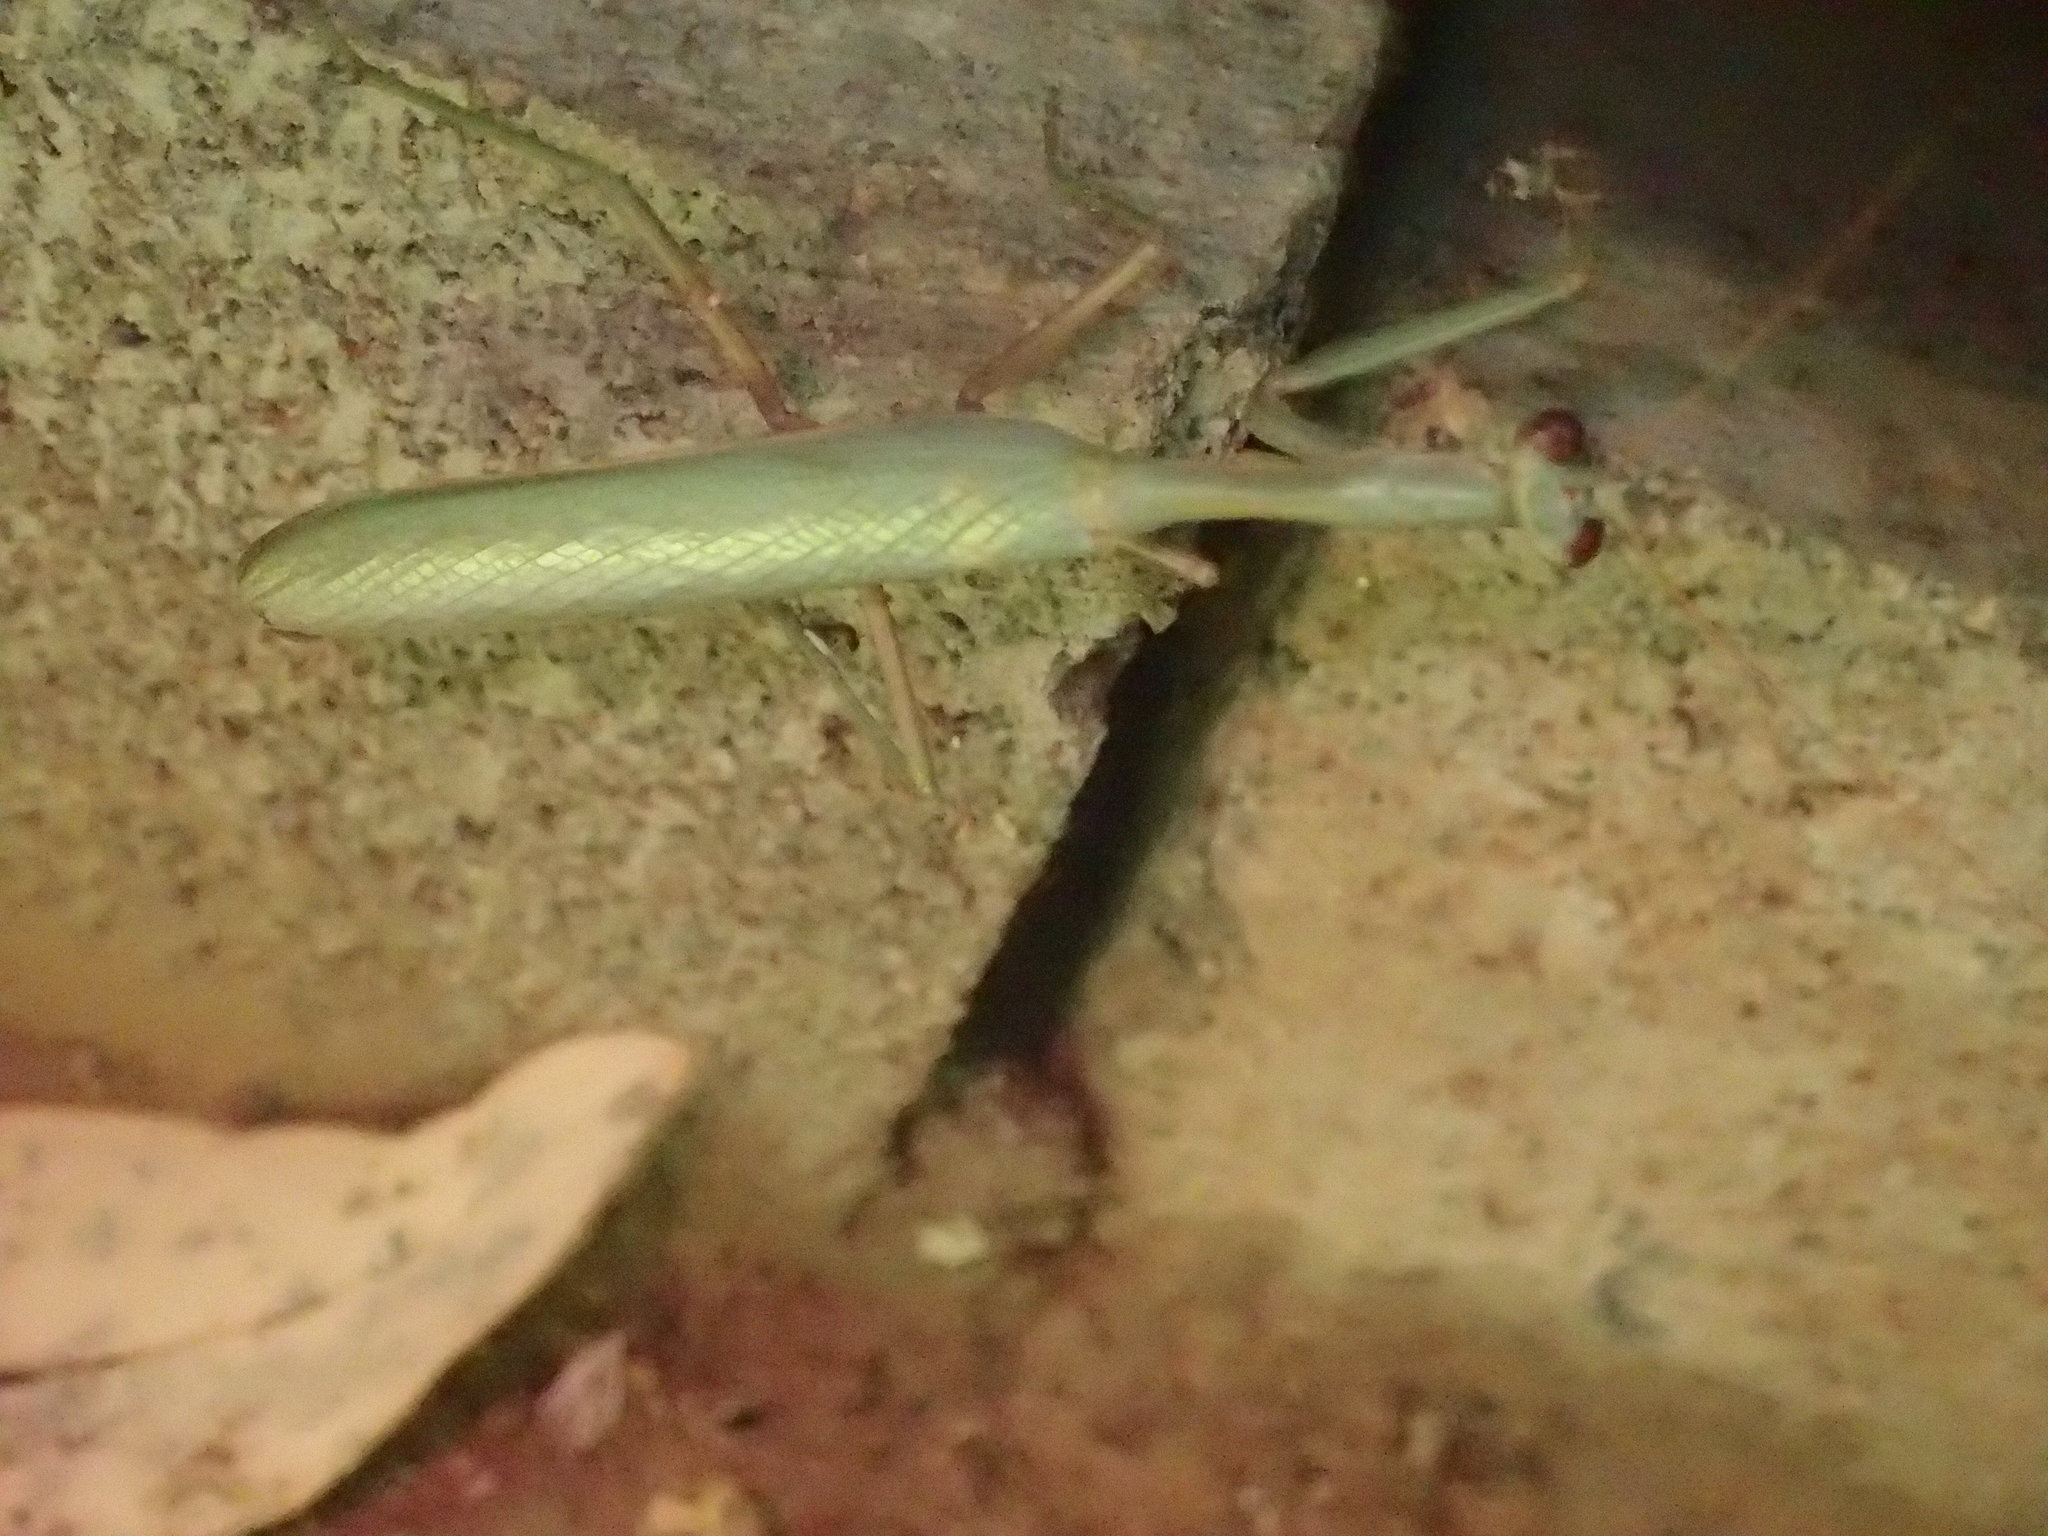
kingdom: Animalia
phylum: Arthropoda
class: Insecta
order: Mantodea
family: Mantidae
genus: Zopheromantis
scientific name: Zopheromantis loripes
